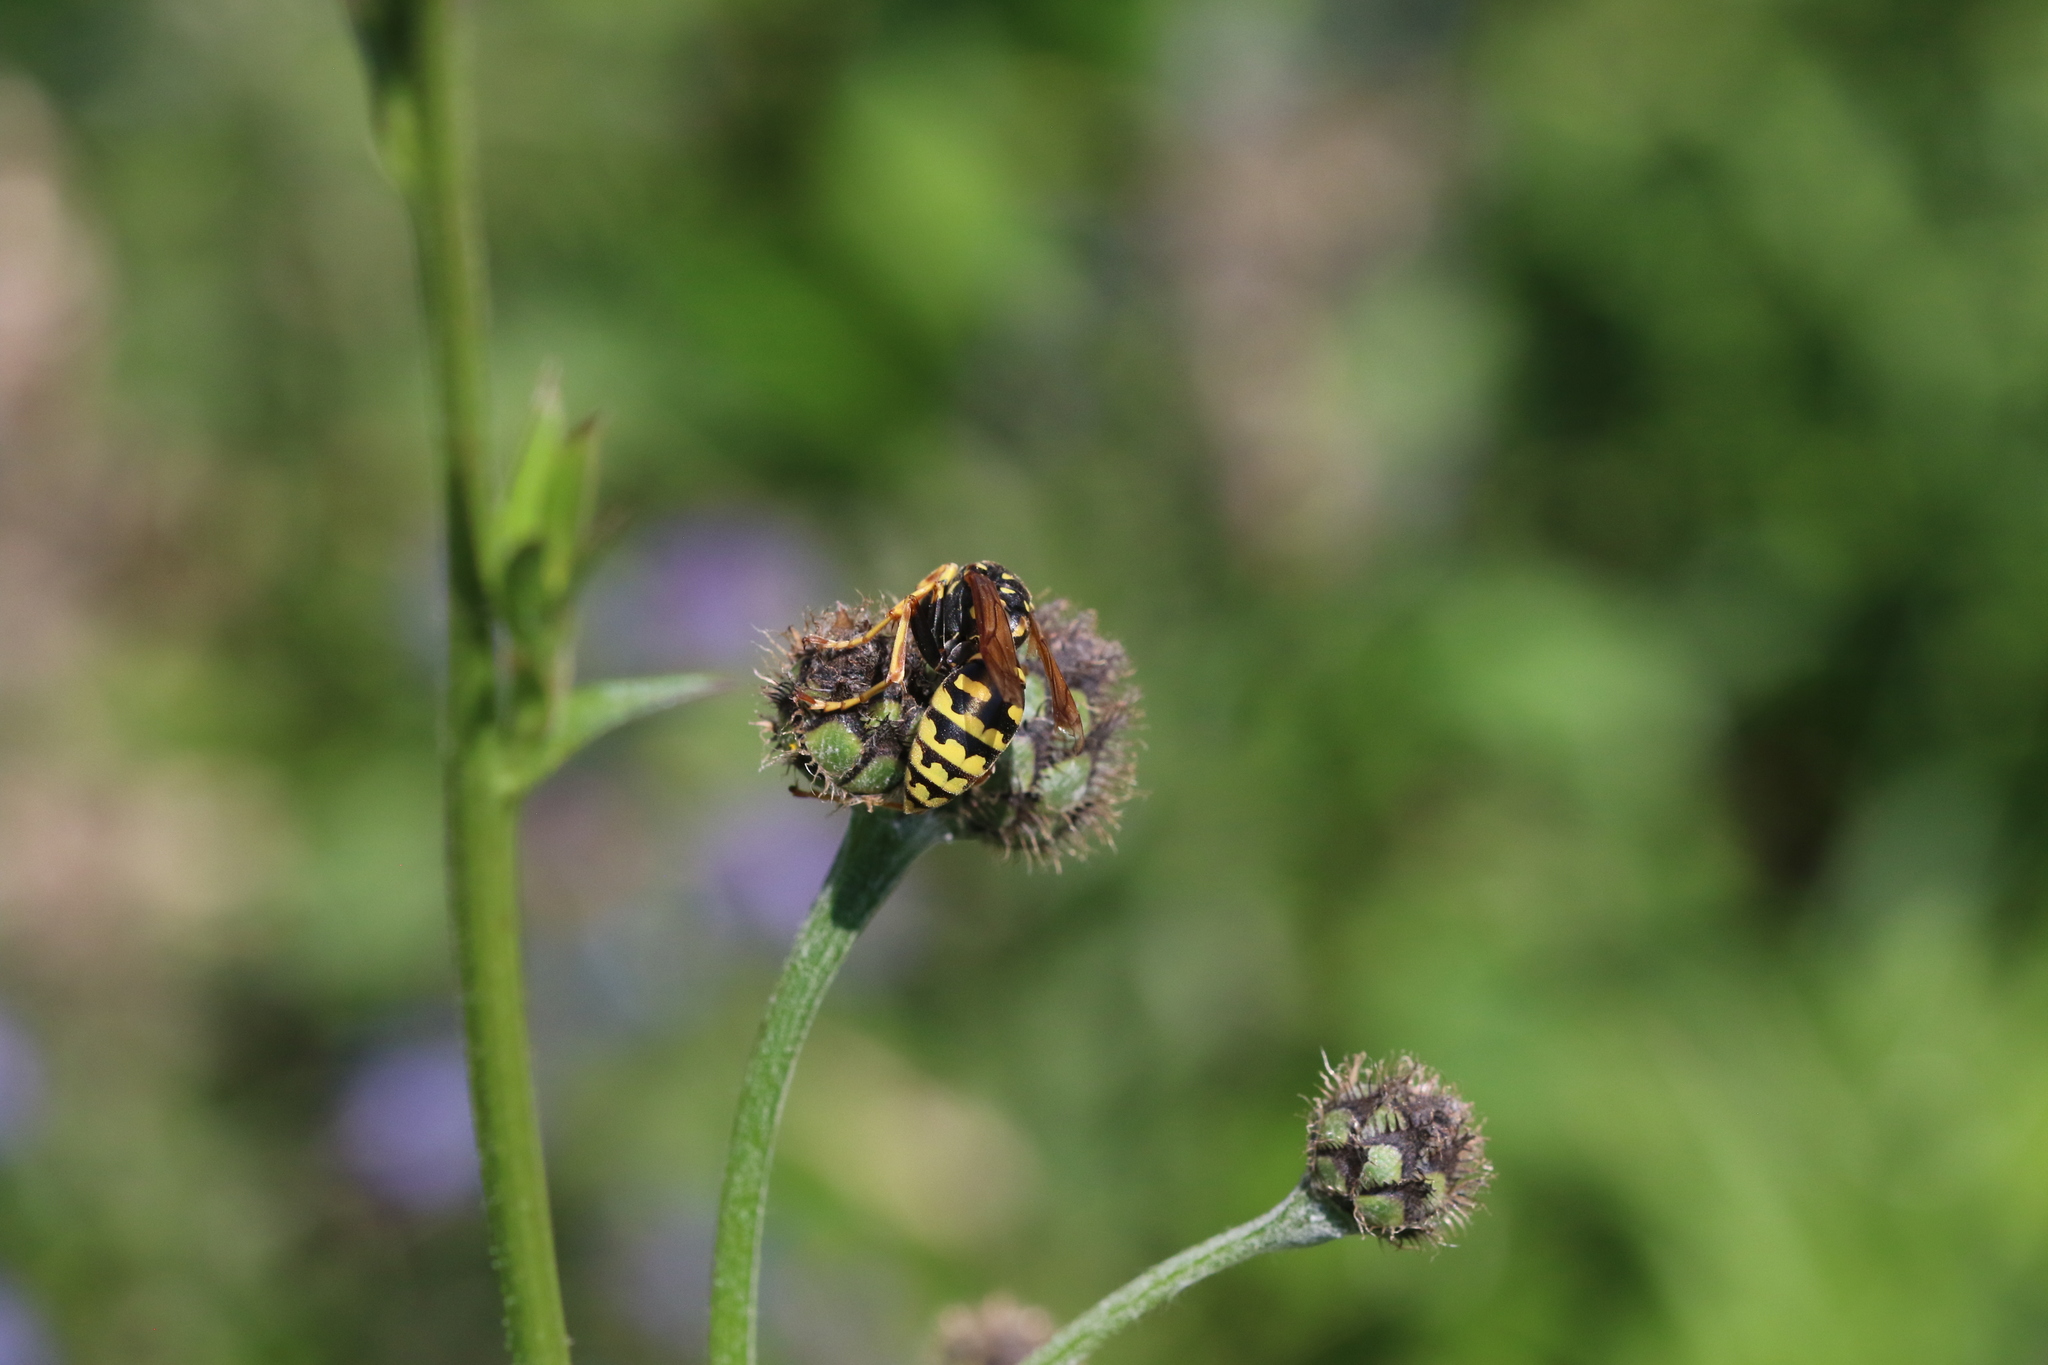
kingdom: Animalia
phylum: Arthropoda
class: Insecta
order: Hymenoptera
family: Eumenidae
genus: Polistes
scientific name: Polistes dominula
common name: Paper wasp
